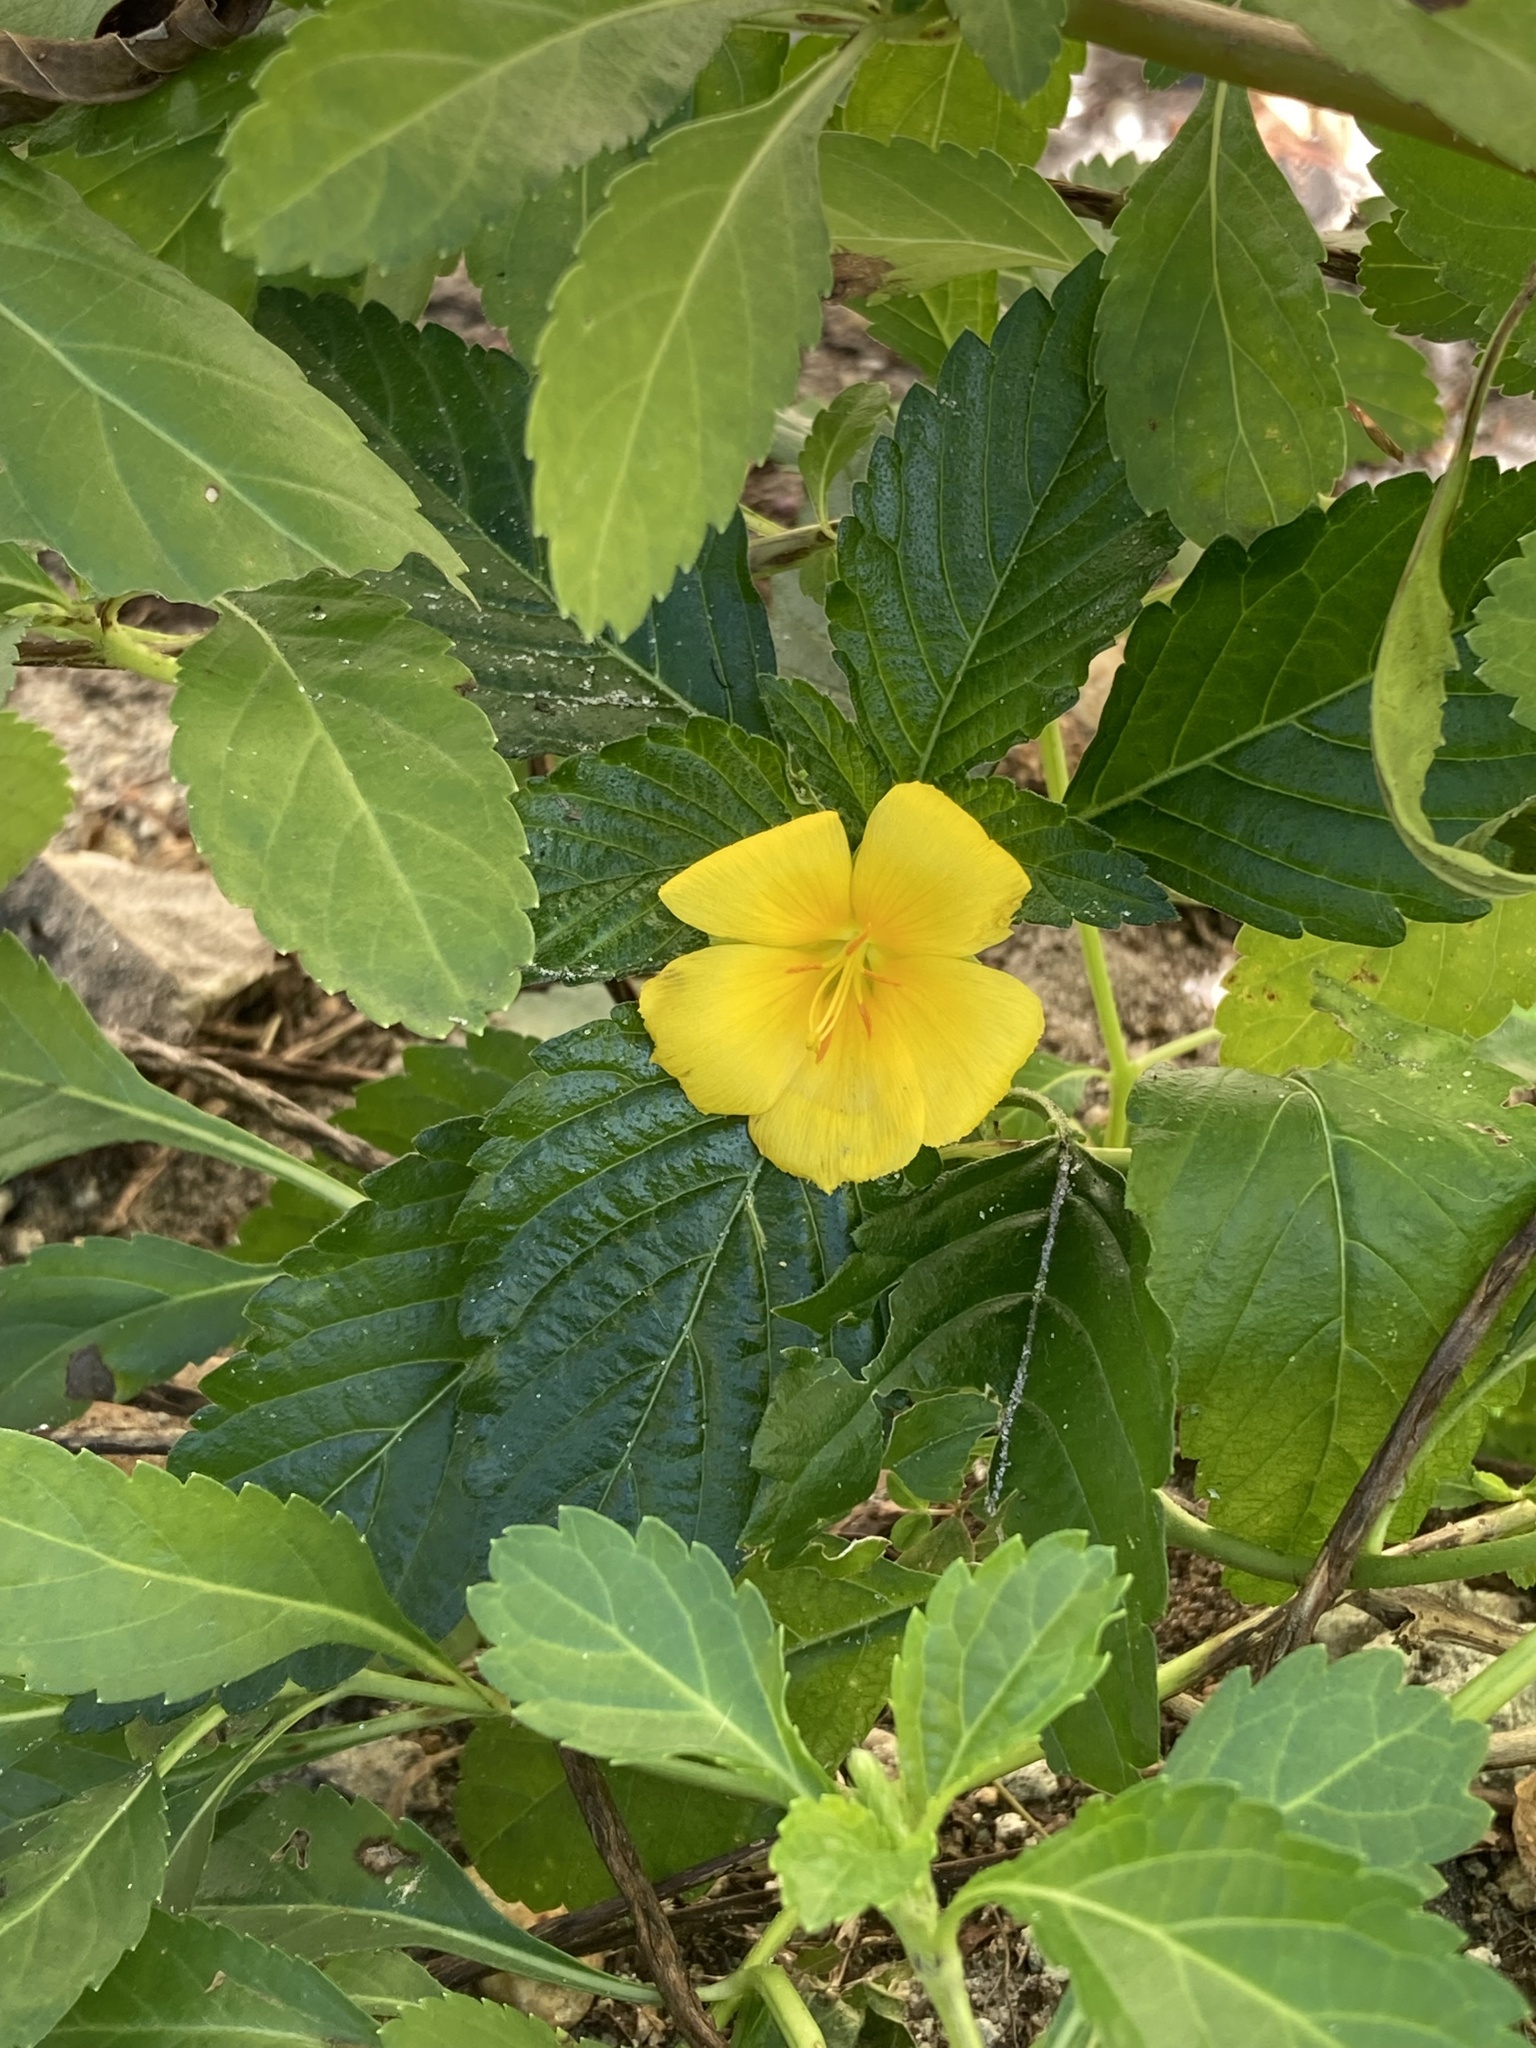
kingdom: Plantae
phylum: Tracheophyta
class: Magnoliopsida
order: Malpighiales
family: Turneraceae
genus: Turnera
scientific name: Turnera ulmifolia
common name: Ramgoat dashalong
